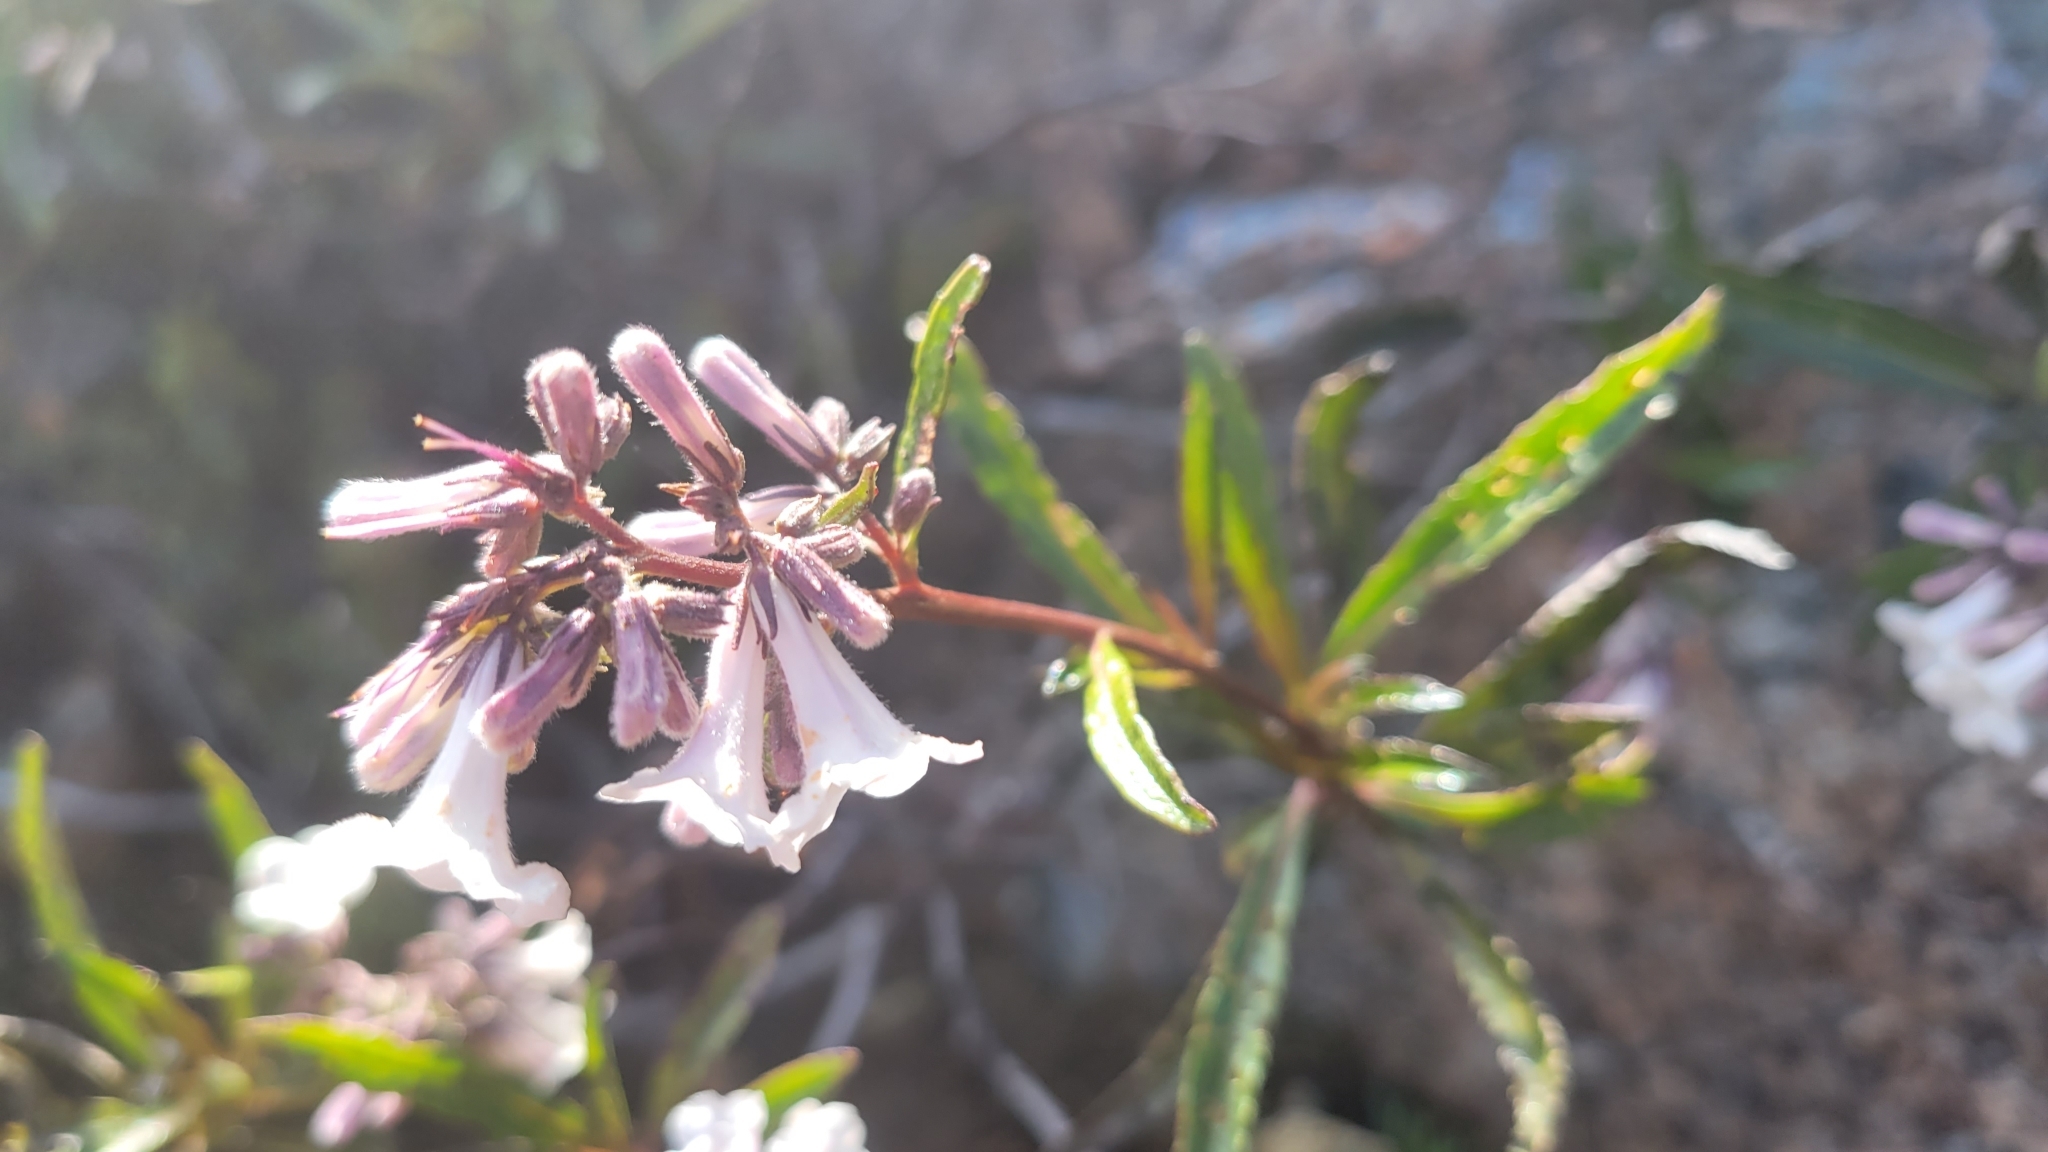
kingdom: Plantae
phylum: Tracheophyta
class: Magnoliopsida
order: Boraginales
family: Namaceae
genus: Eriodictyon
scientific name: Eriodictyon californicum
